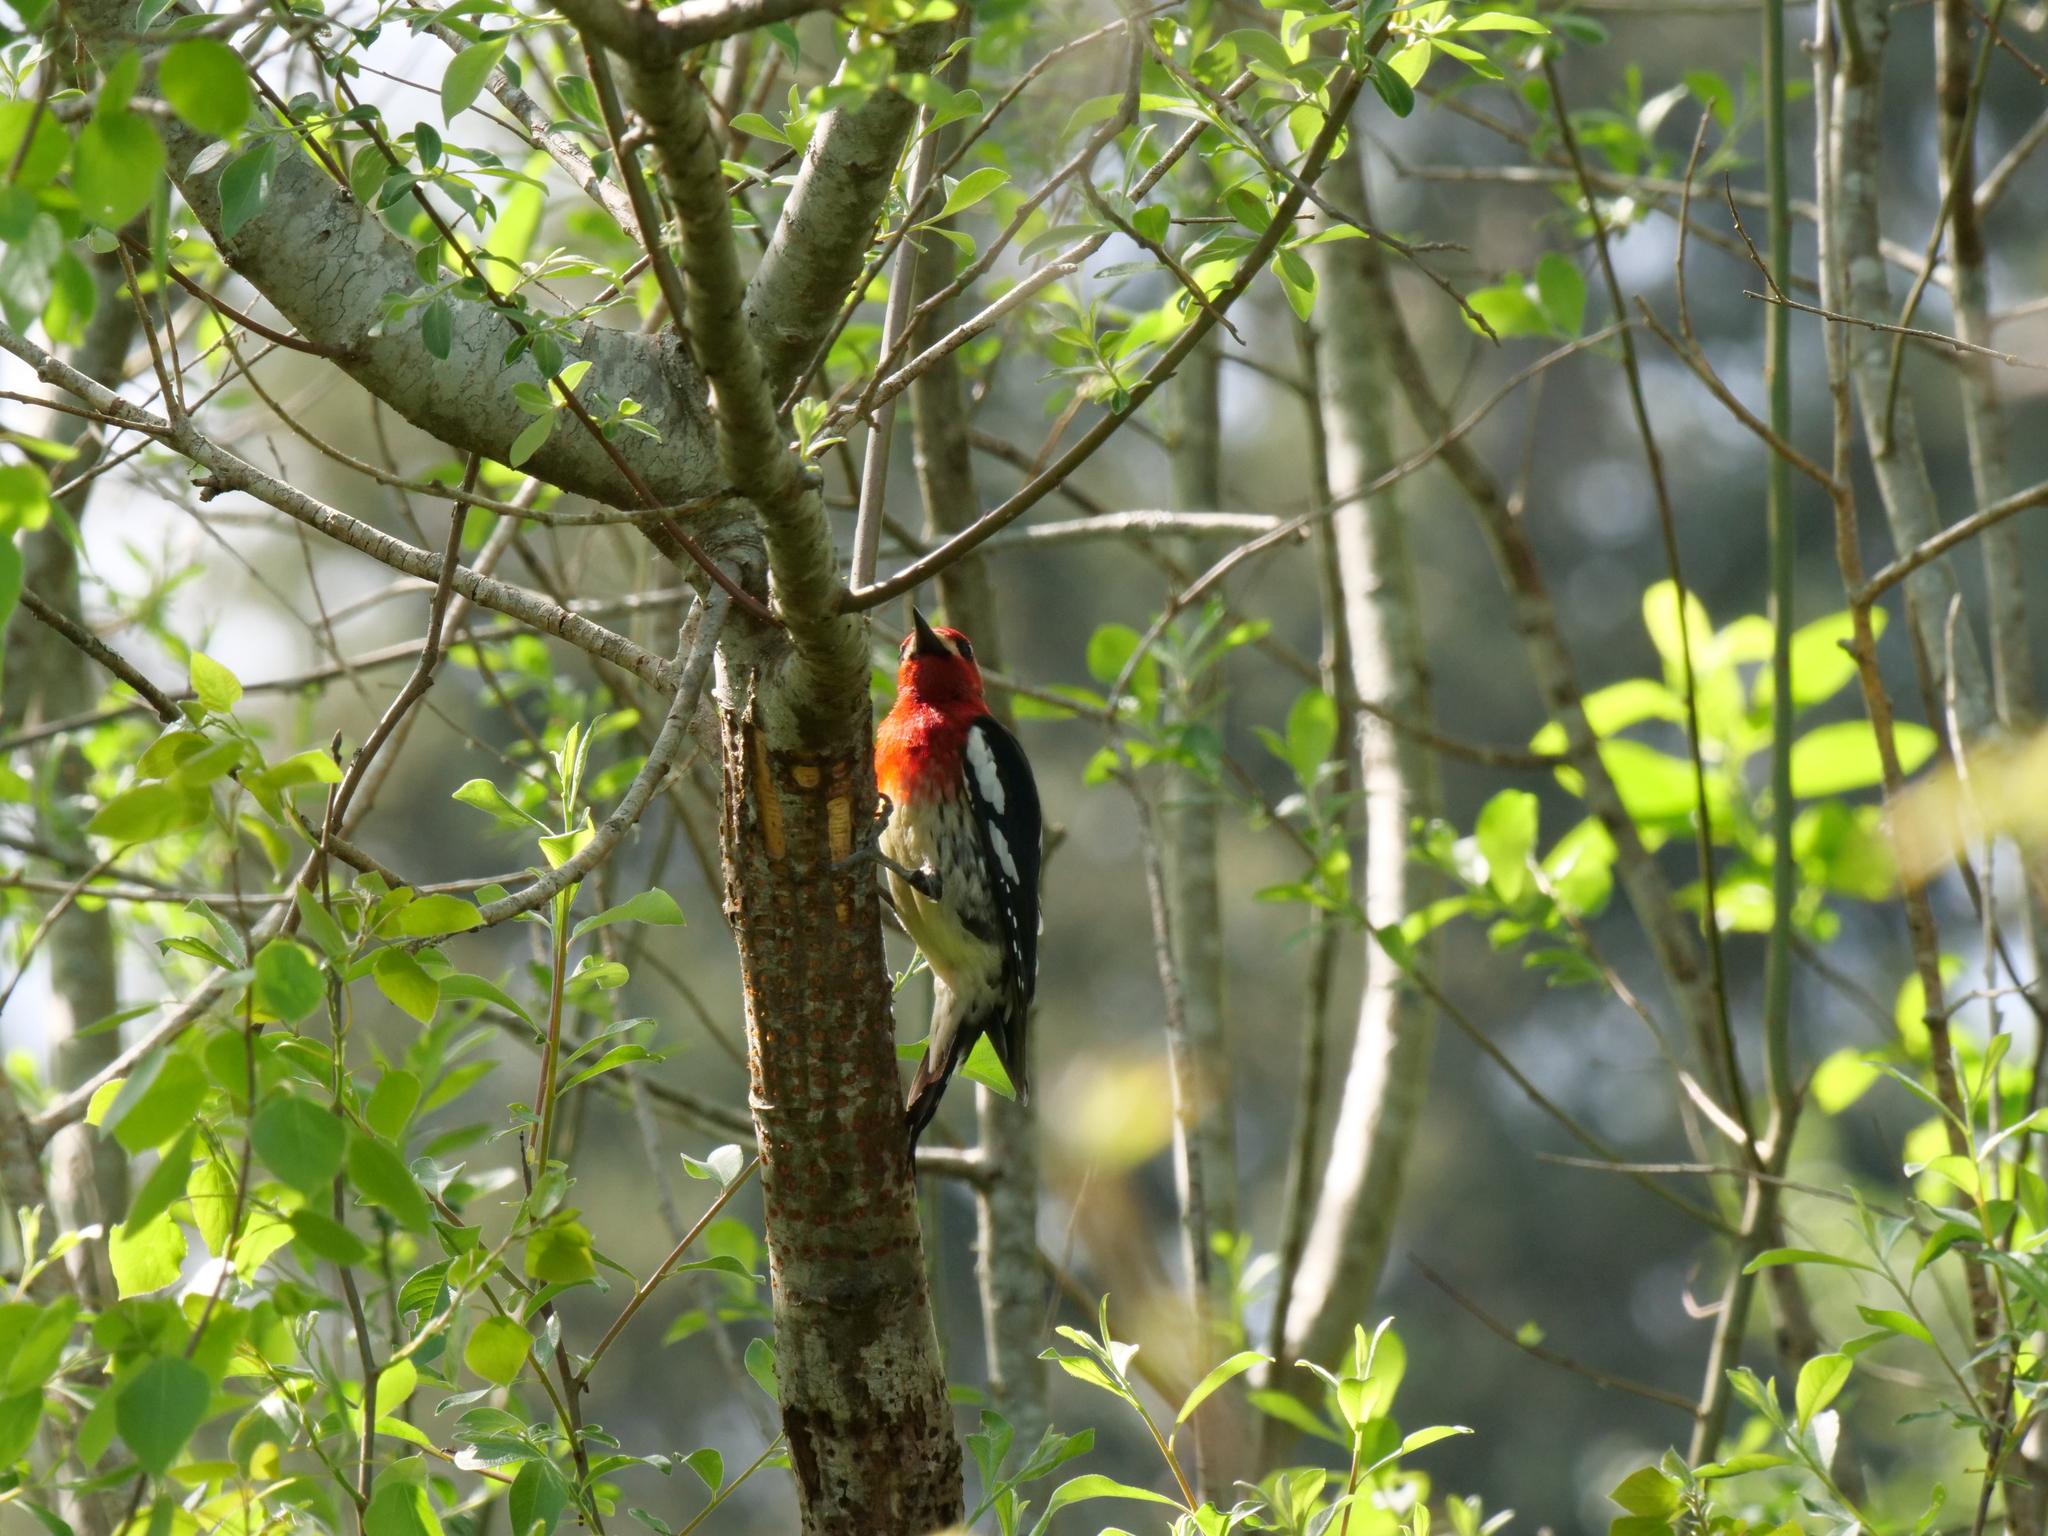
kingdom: Animalia
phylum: Chordata
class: Aves
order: Piciformes
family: Picidae
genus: Sphyrapicus
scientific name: Sphyrapicus ruber
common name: Red-breasted sapsucker
